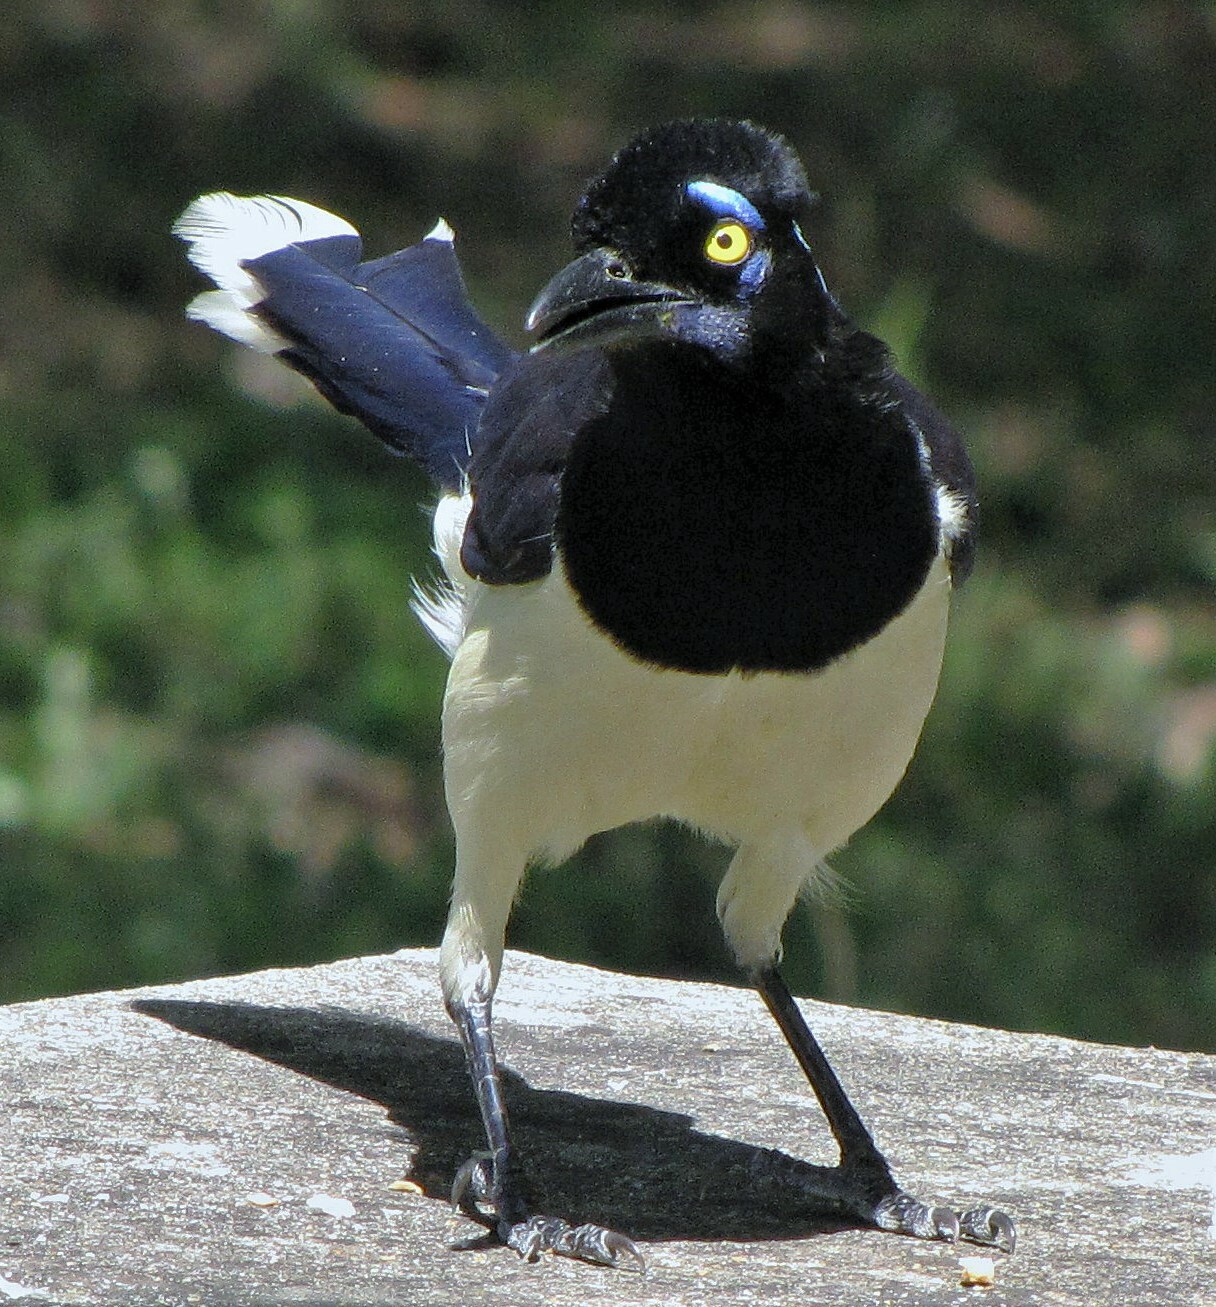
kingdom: Animalia
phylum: Chordata
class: Aves
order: Passeriformes
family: Corvidae
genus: Cyanocorax
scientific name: Cyanocorax chrysops
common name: Plush-crested jay
